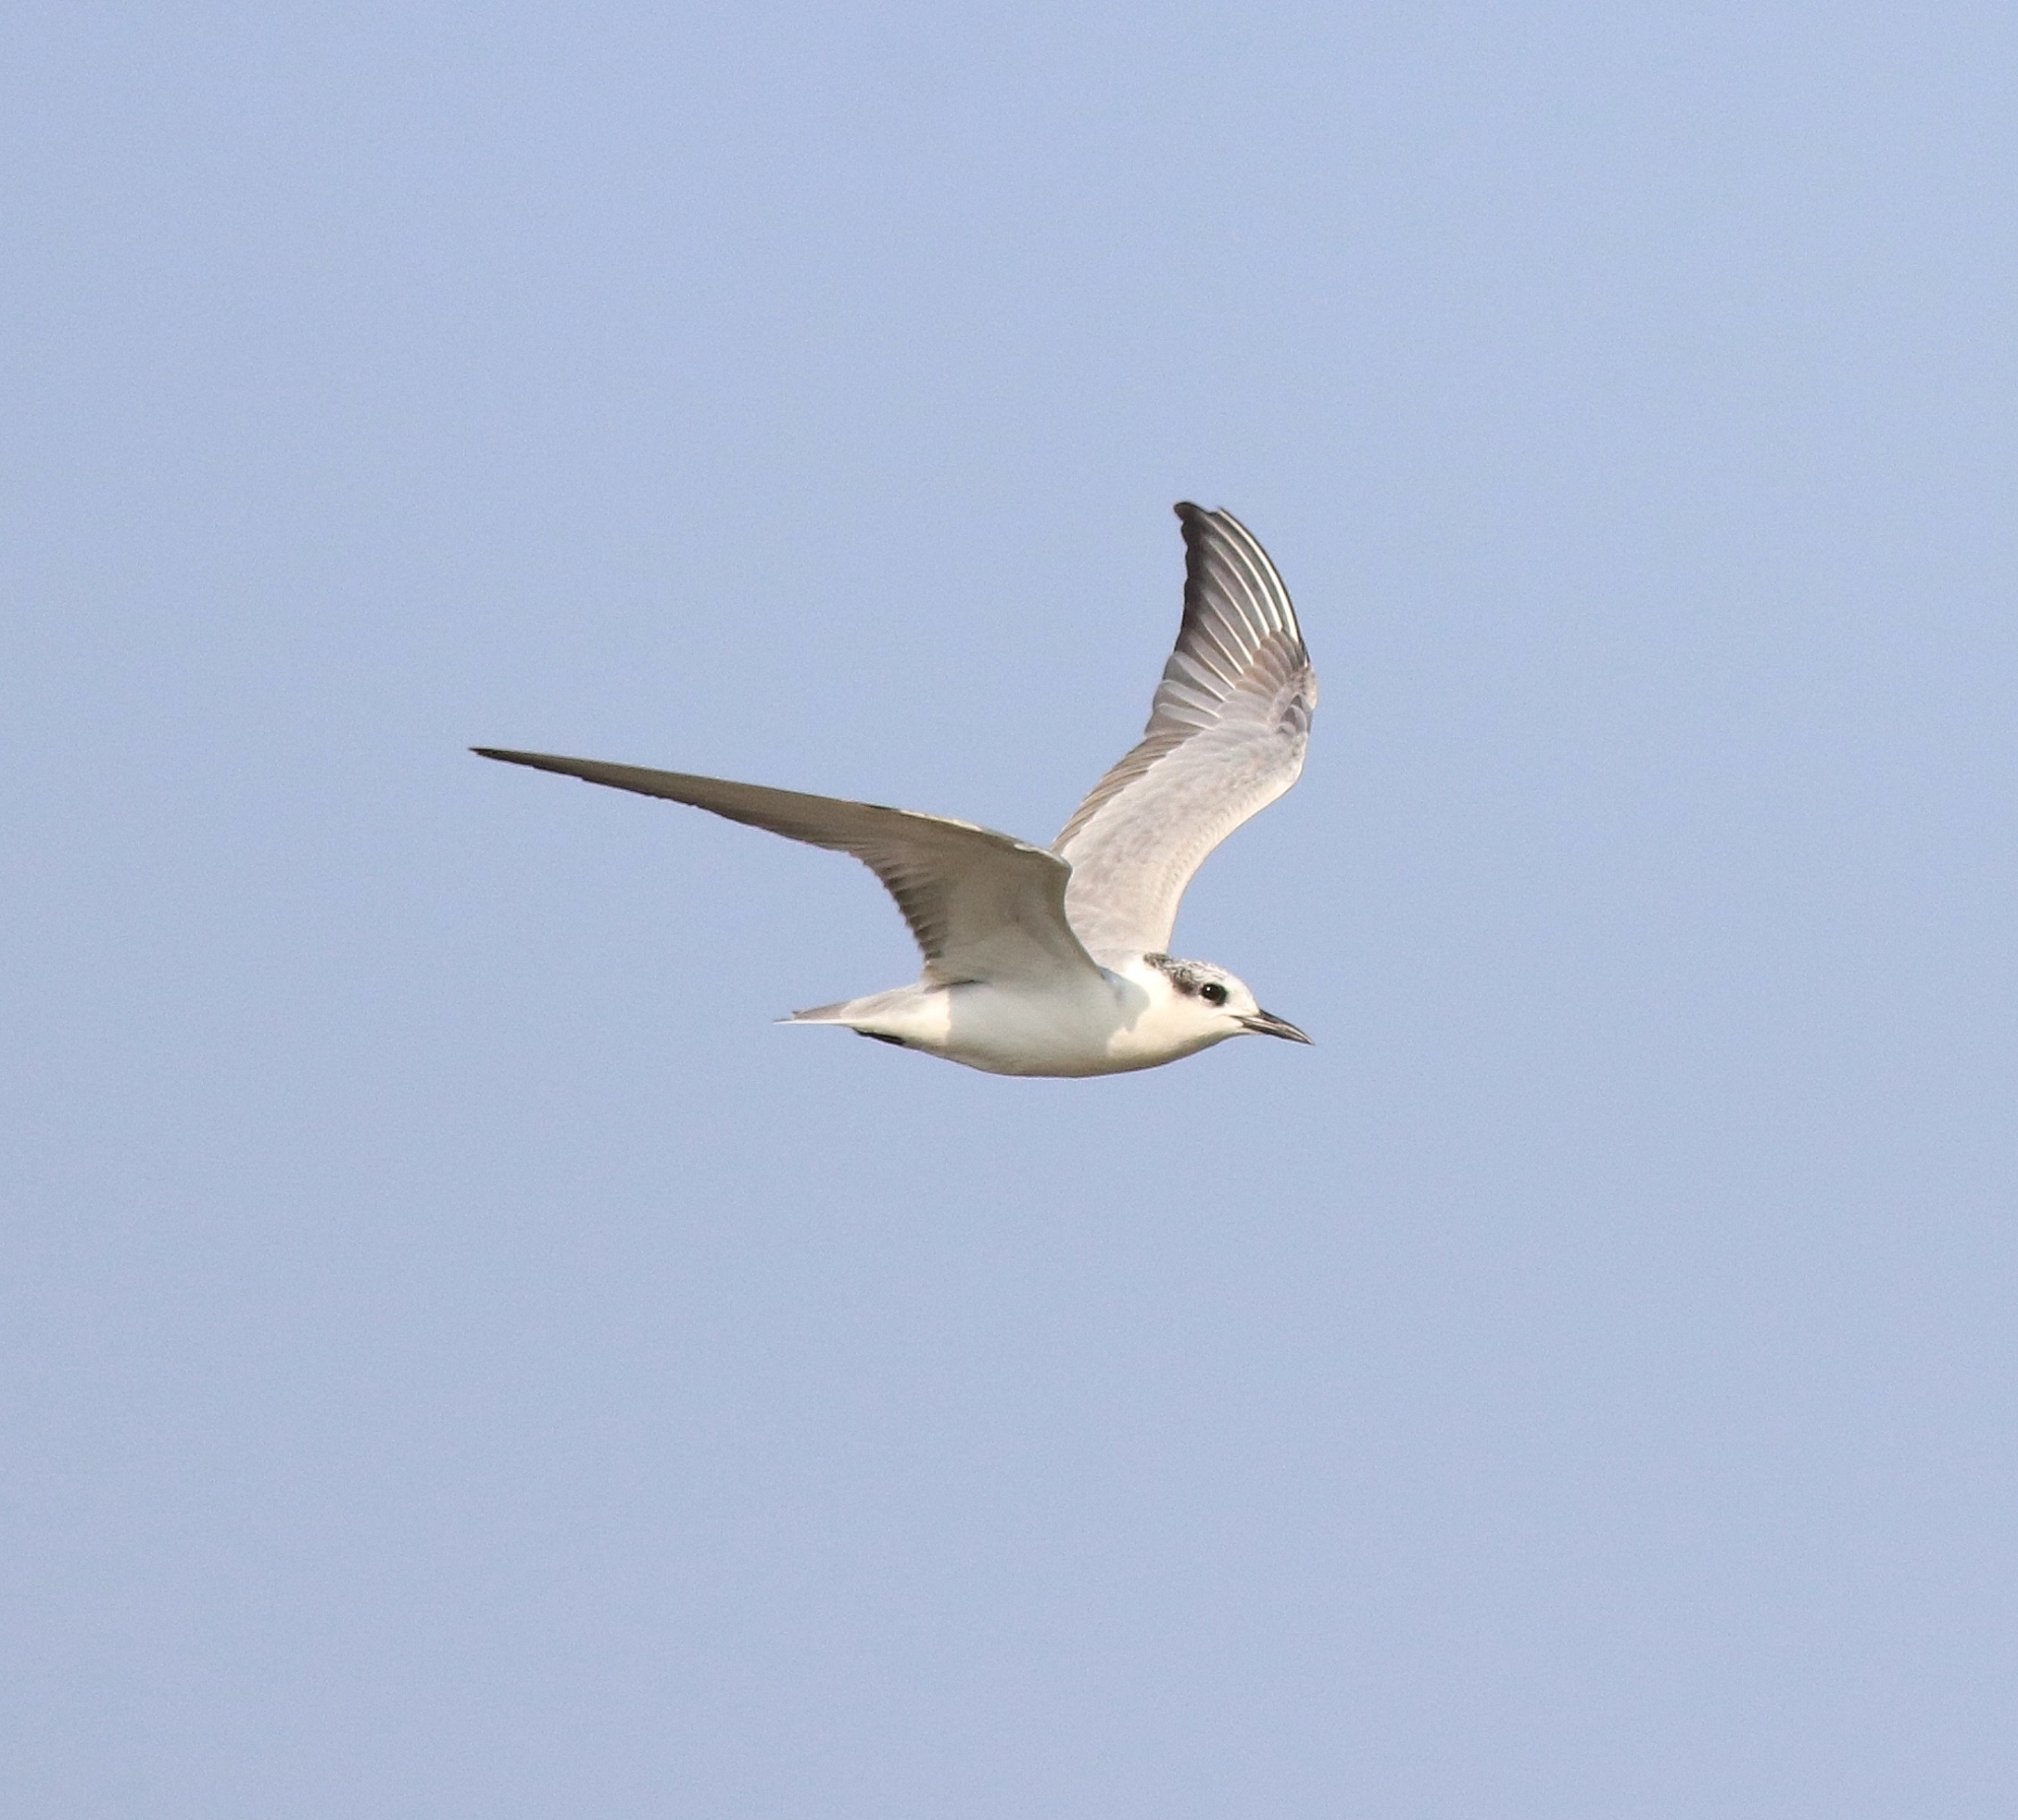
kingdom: Animalia
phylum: Chordata
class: Aves
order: Charadriiformes
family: Laridae
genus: Chlidonias
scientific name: Chlidonias hybrida
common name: Whiskered tern
